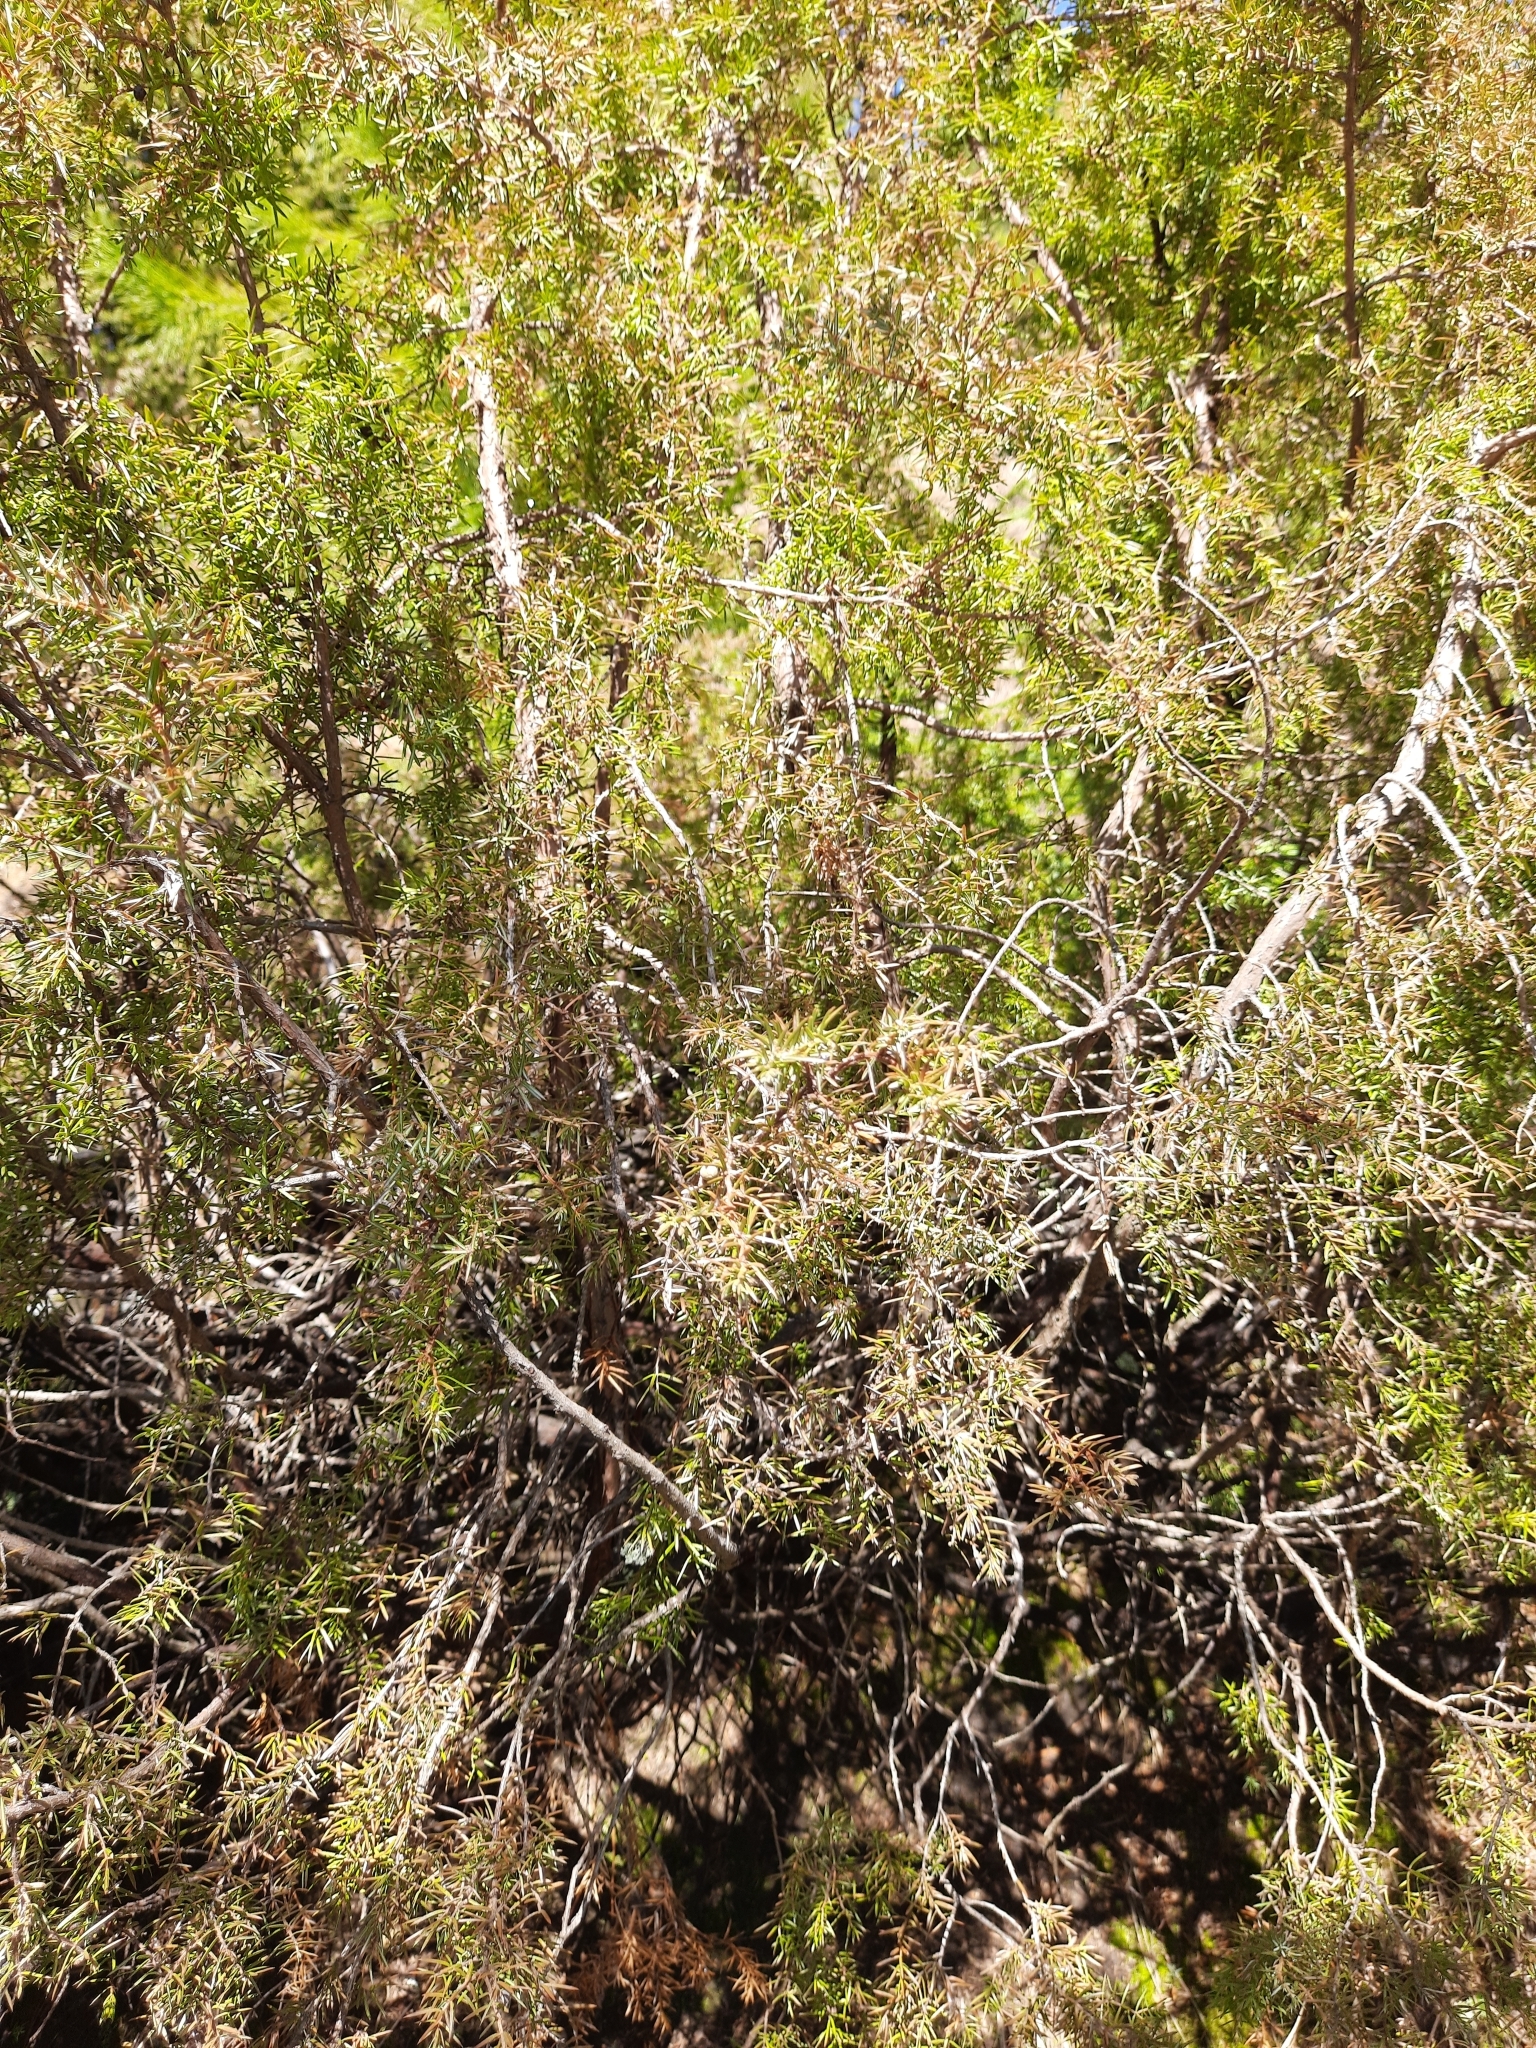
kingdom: Plantae
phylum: Tracheophyta
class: Pinopsida
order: Pinales
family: Cupressaceae
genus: Juniperus
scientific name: Juniperus communis
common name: Common juniper
